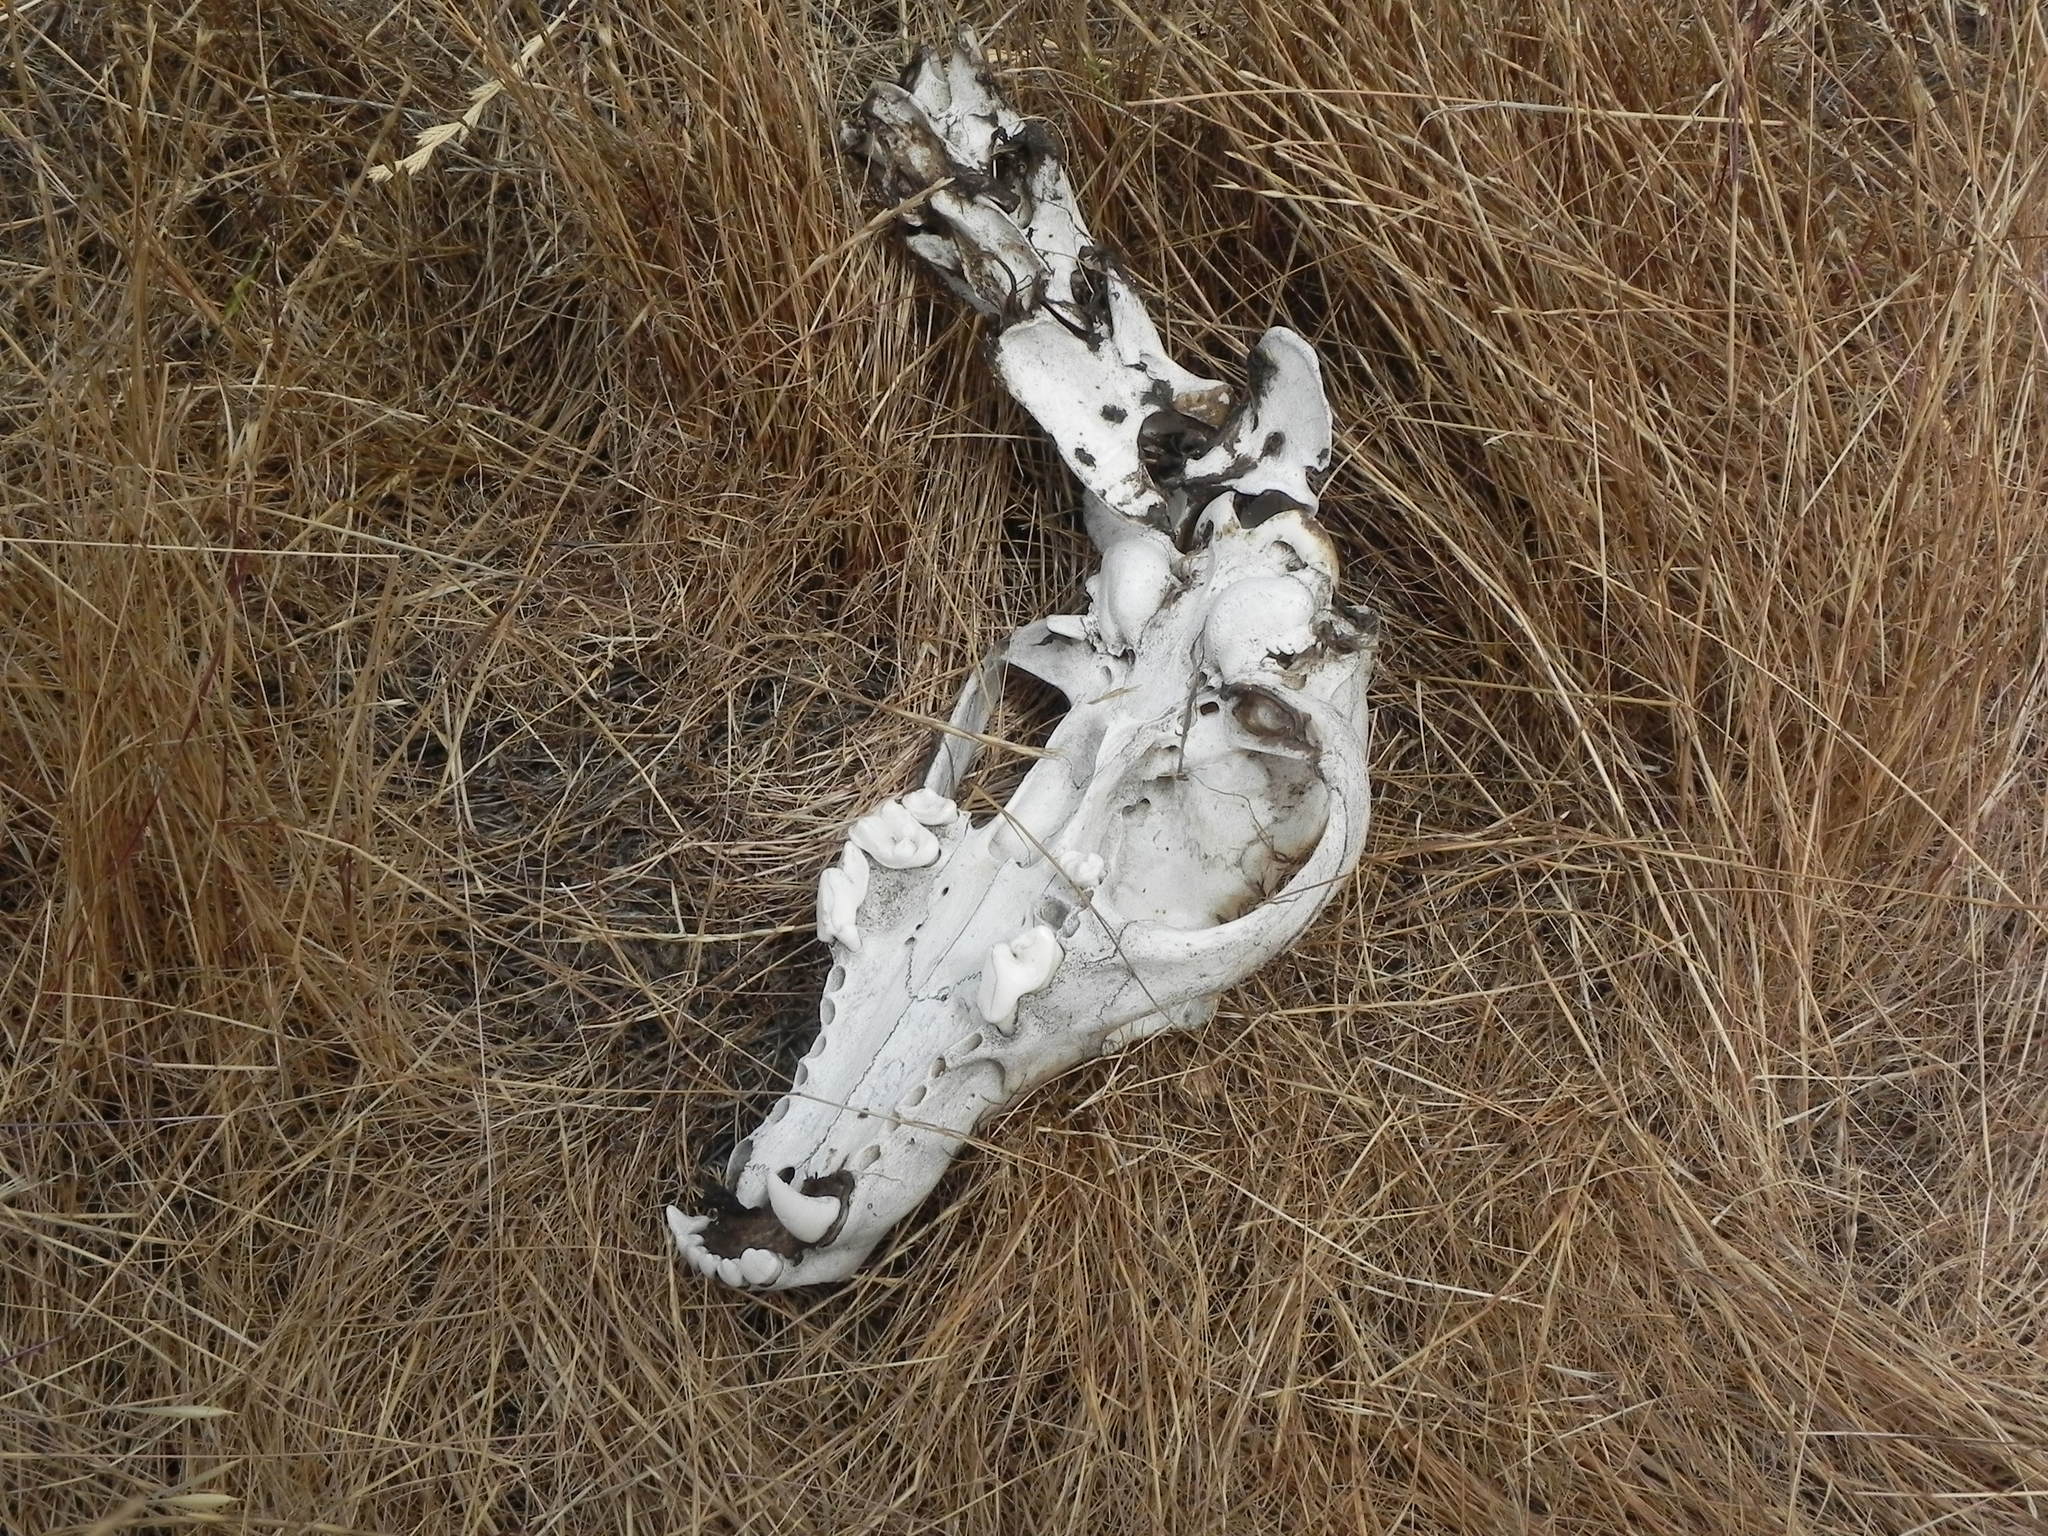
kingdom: Animalia
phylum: Chordata
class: Mammalia
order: Carnivora
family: Canidae
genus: Canis
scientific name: Canis latrans
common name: Coyote
